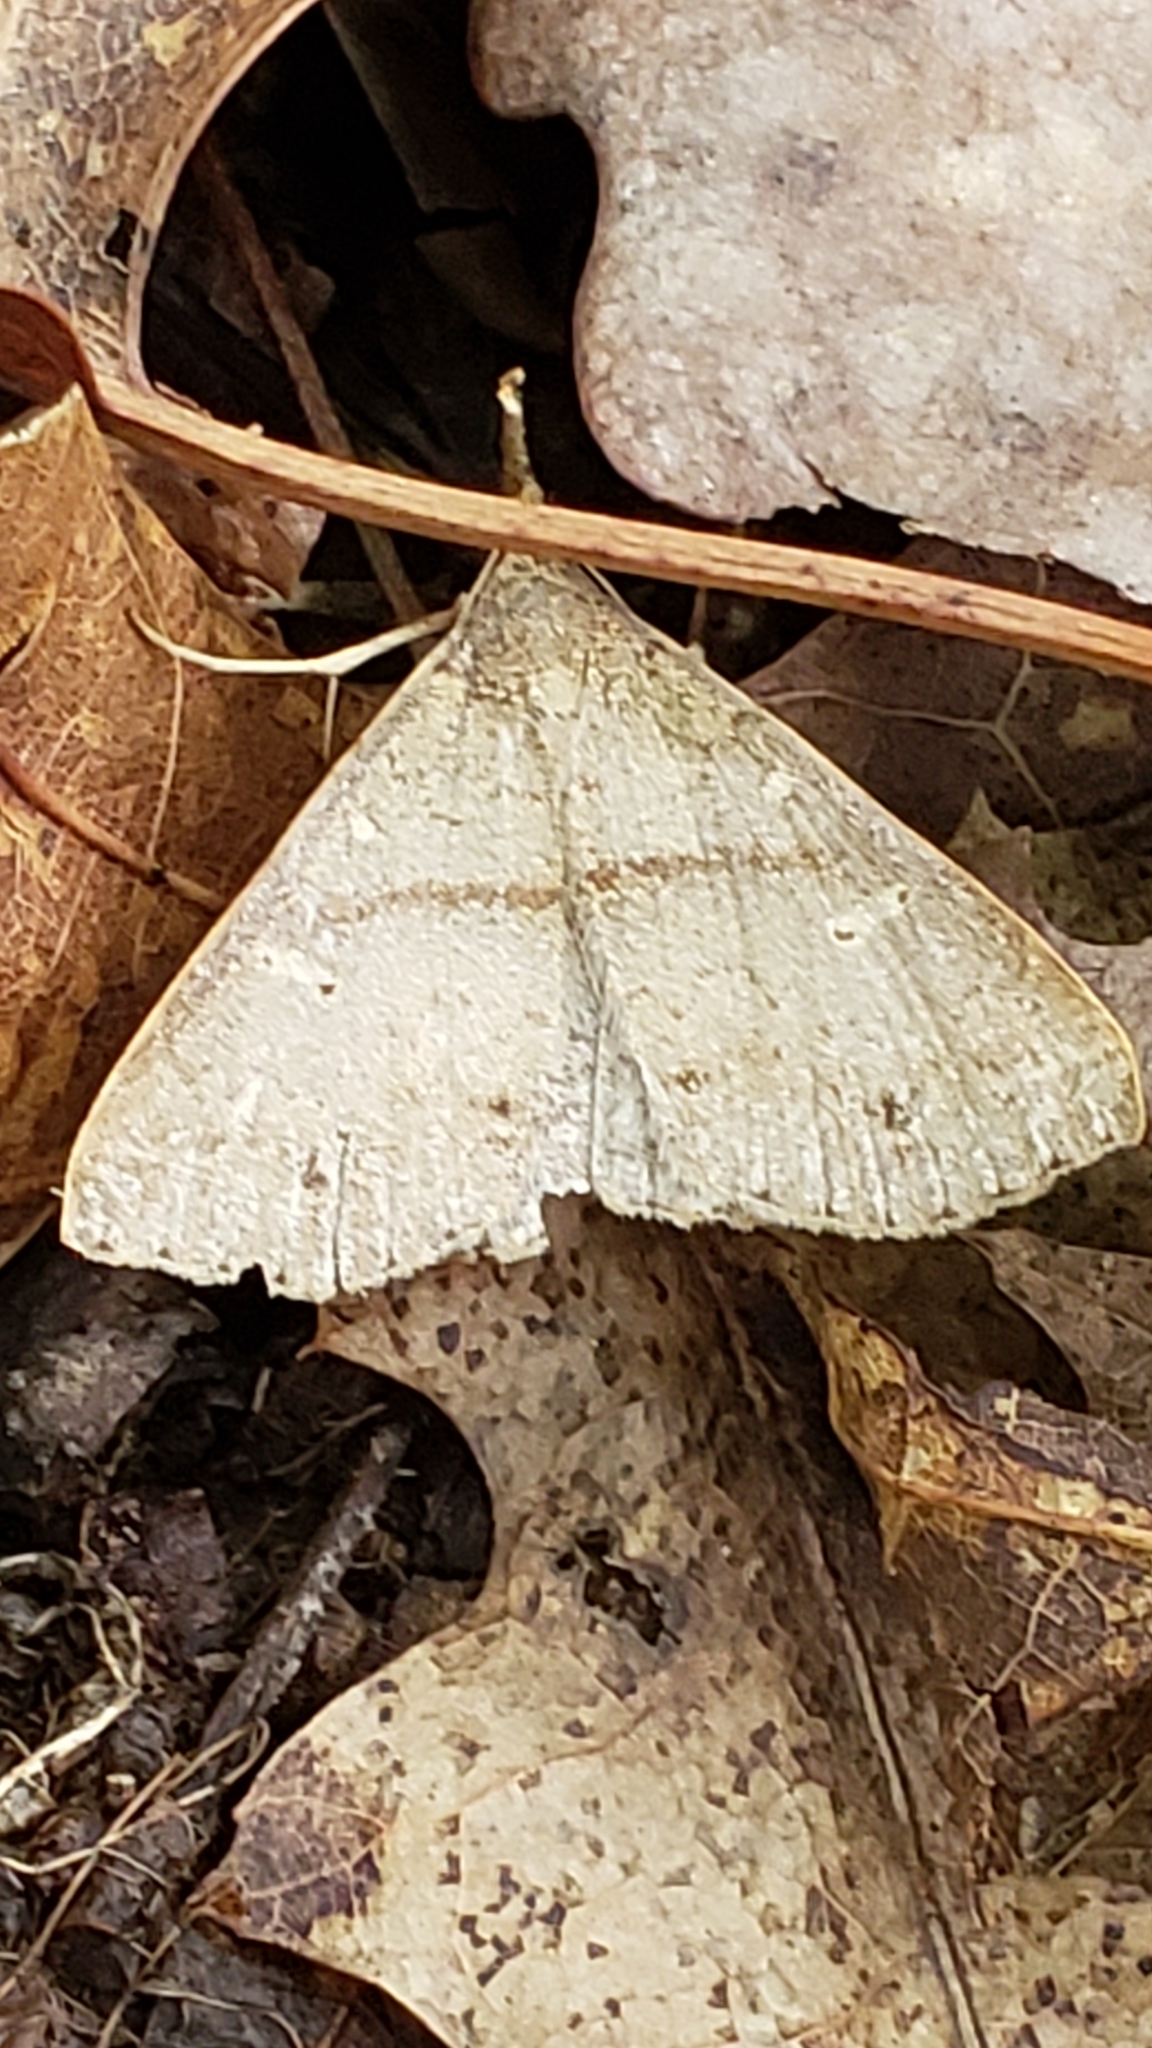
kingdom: Animalia
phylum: Arthropoda
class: Insecta
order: Lepidoptera
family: Erebidae
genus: Renia
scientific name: Renia adspergillus
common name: Speckled renia moth
